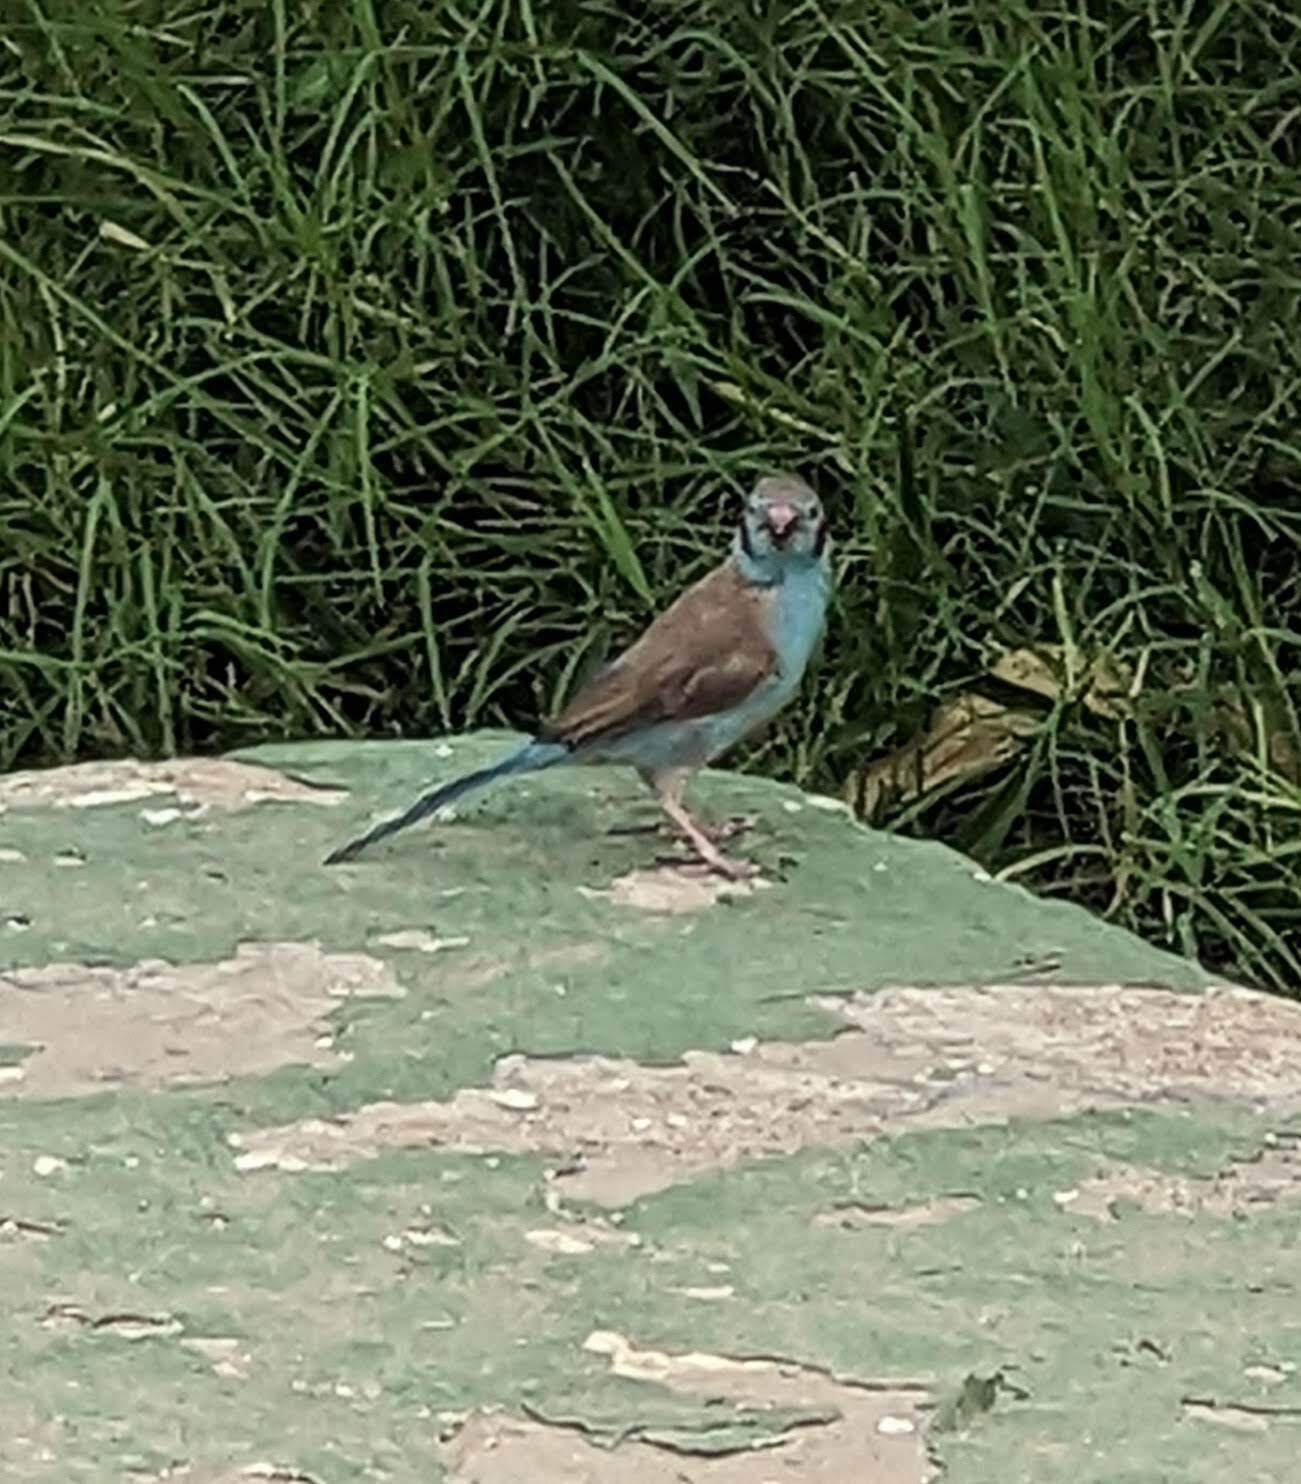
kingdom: Animalia
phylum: Chordata
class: Aves
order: Passeriformes
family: Estrildidae
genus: Uraeginthus
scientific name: Uraeginthus bengalus
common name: Red-cheeked cordon-bleu
